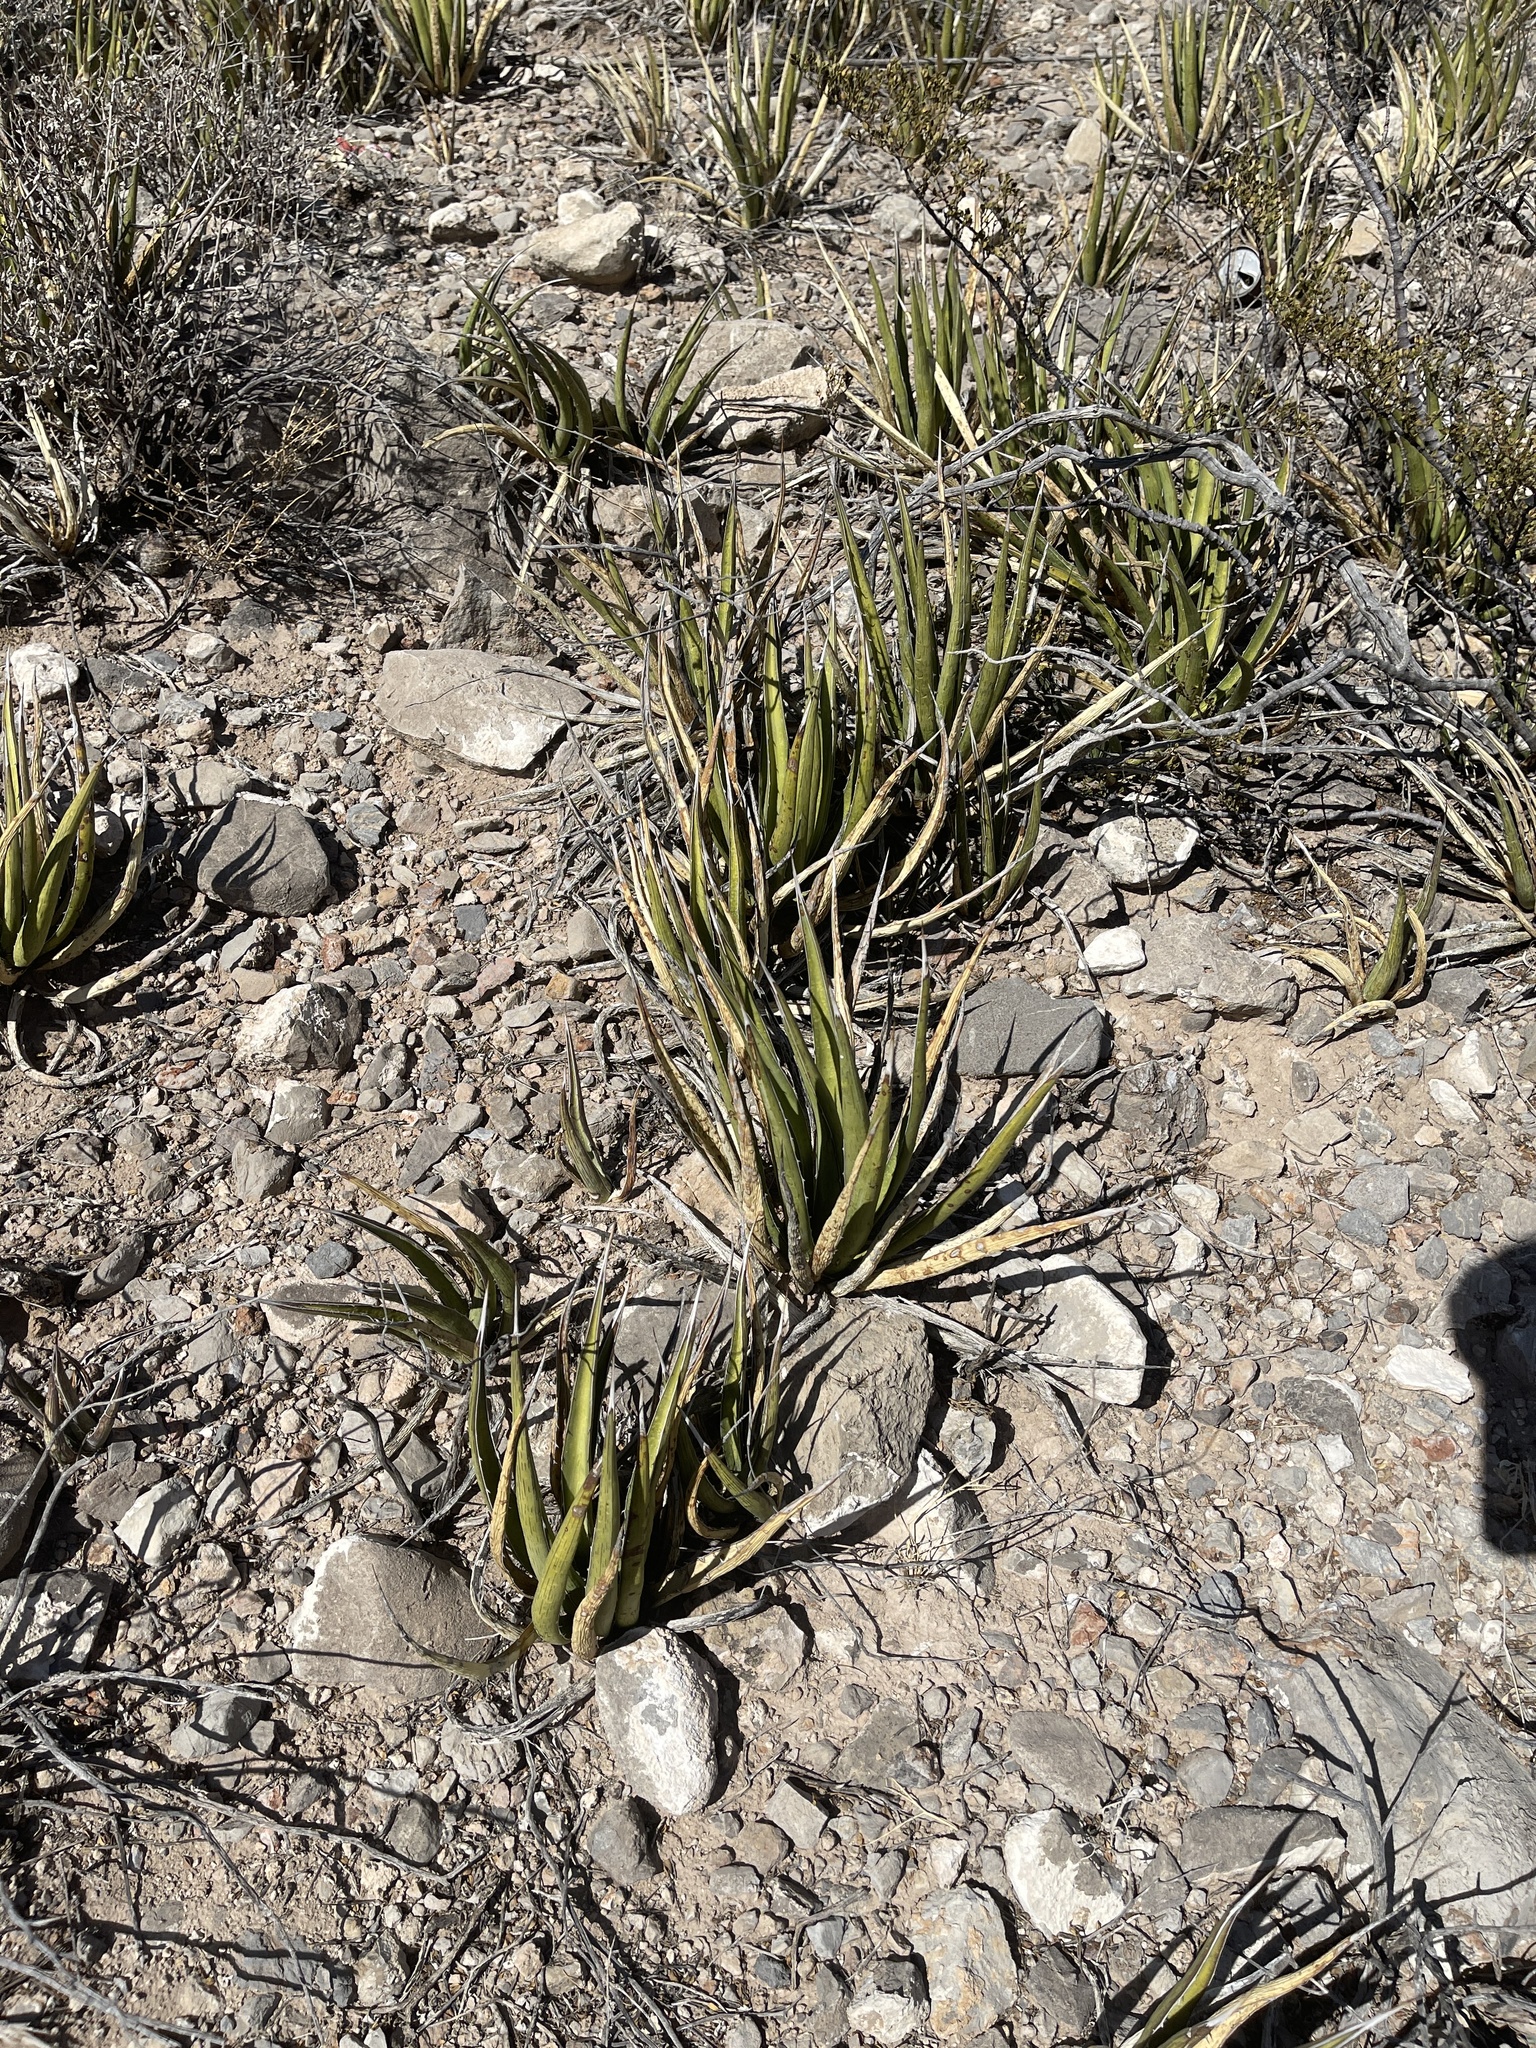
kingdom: Plantae
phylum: Tracheophyta
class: Liliopsida
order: Asparagales
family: Asparagaceae
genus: Agave
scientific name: Agave lechuguilla
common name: Lecheguilla agave
